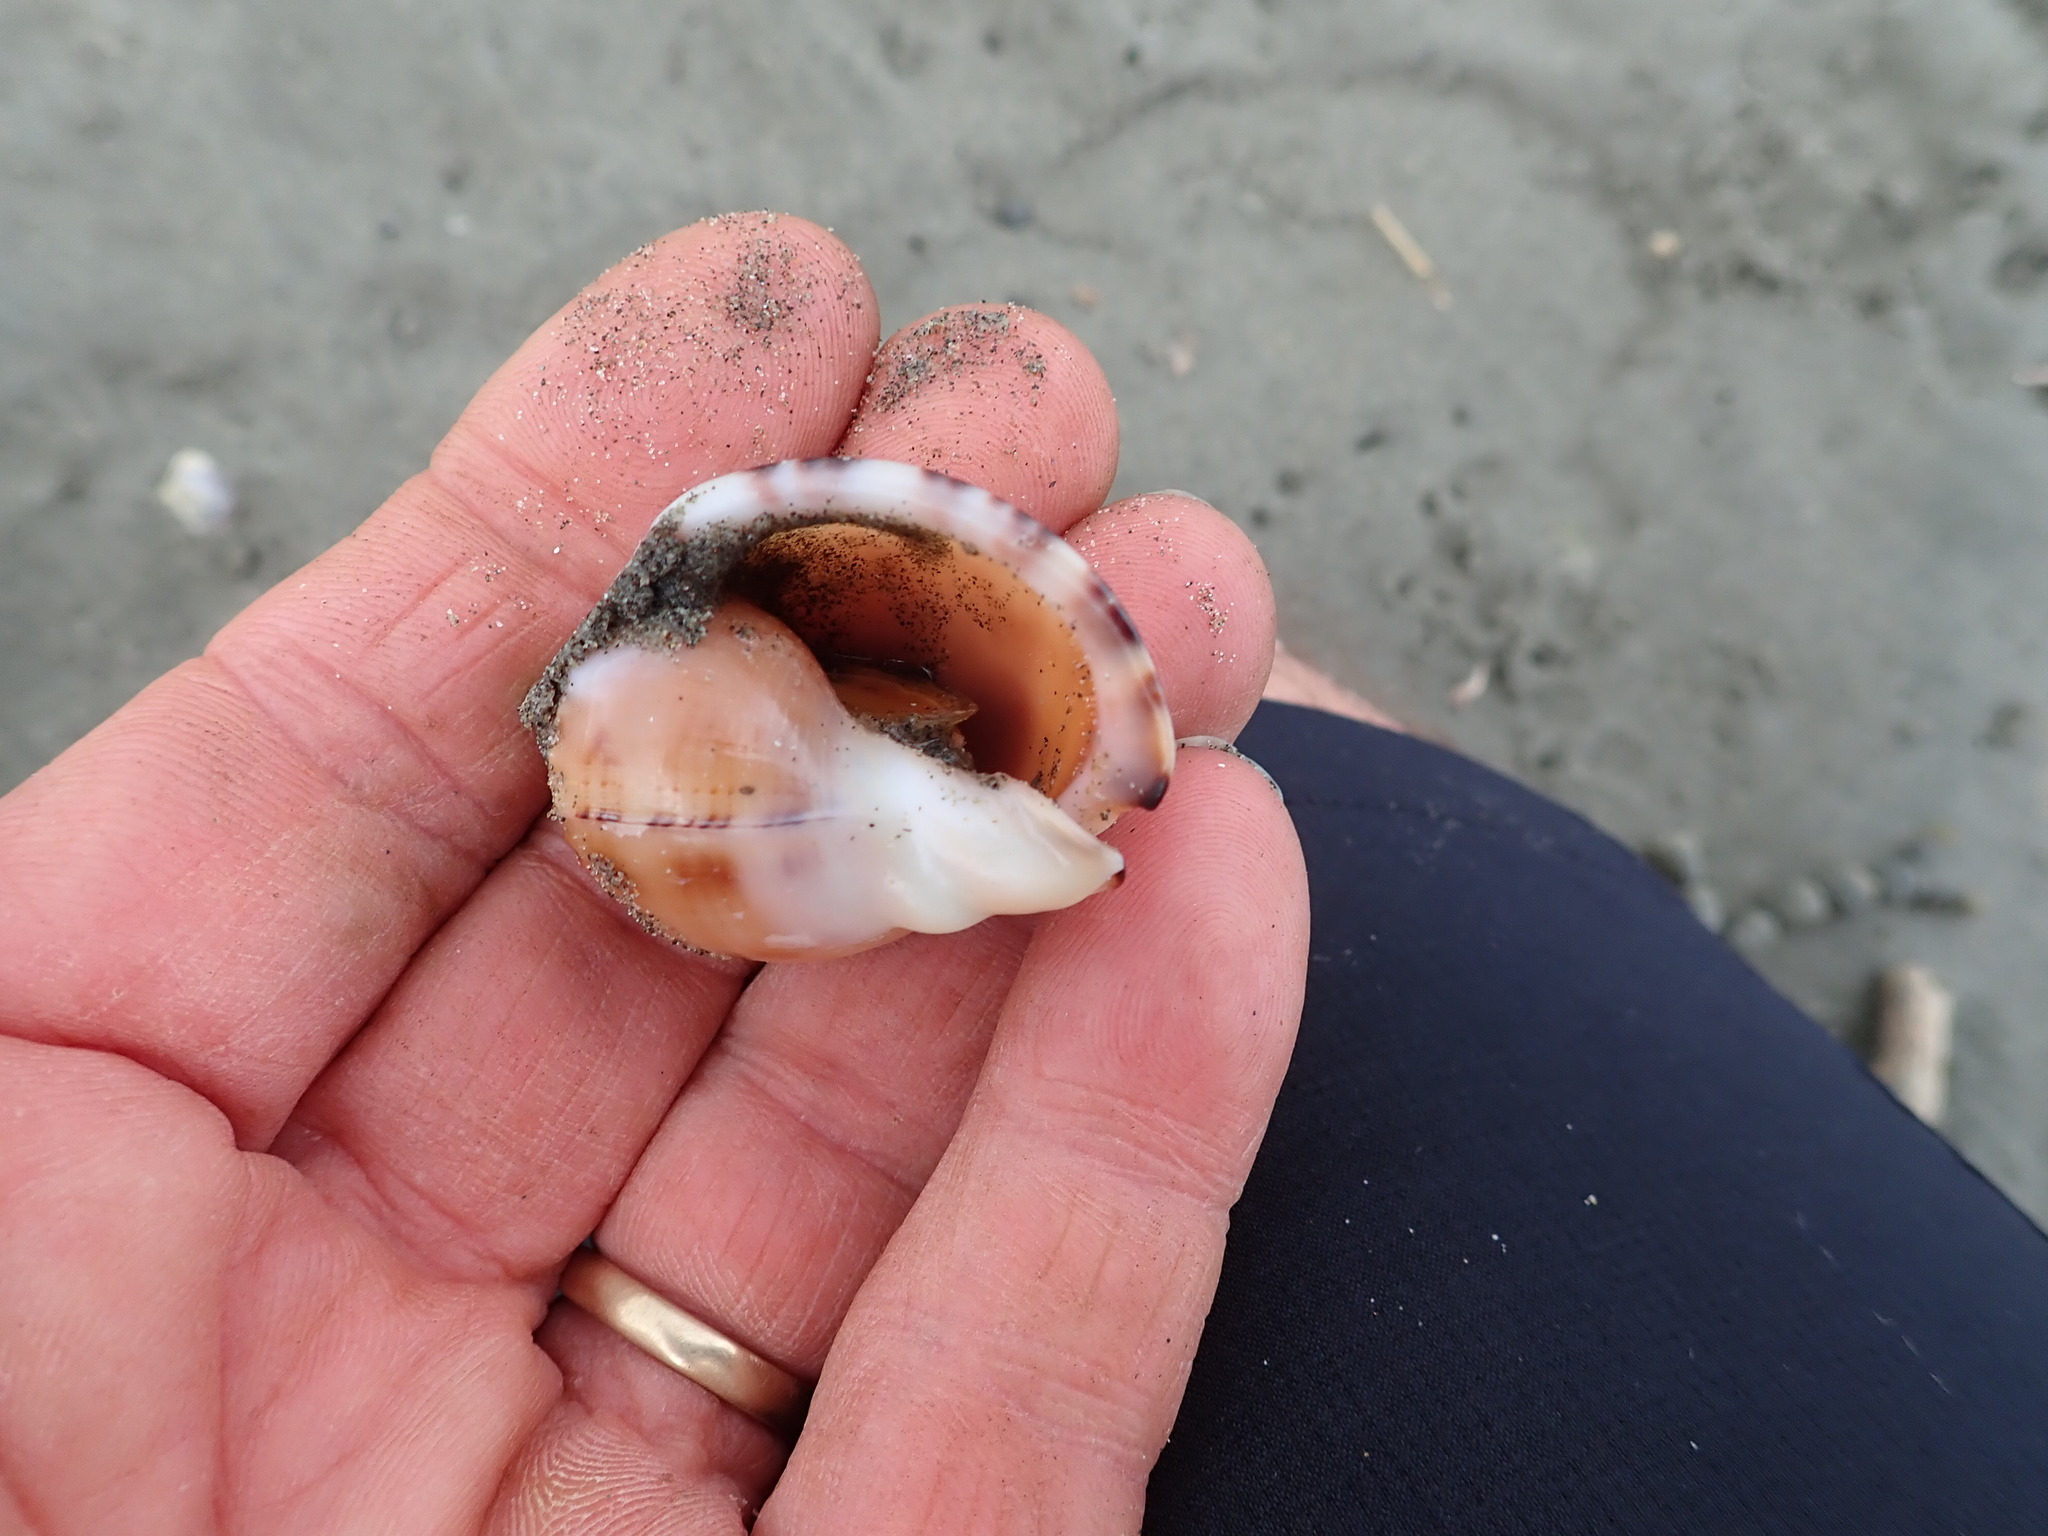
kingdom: Animalia
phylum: Mollusca
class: Gastropoda
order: Littorinimorpha
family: Cassidae
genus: Semicassis
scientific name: Semicassis pyrum
